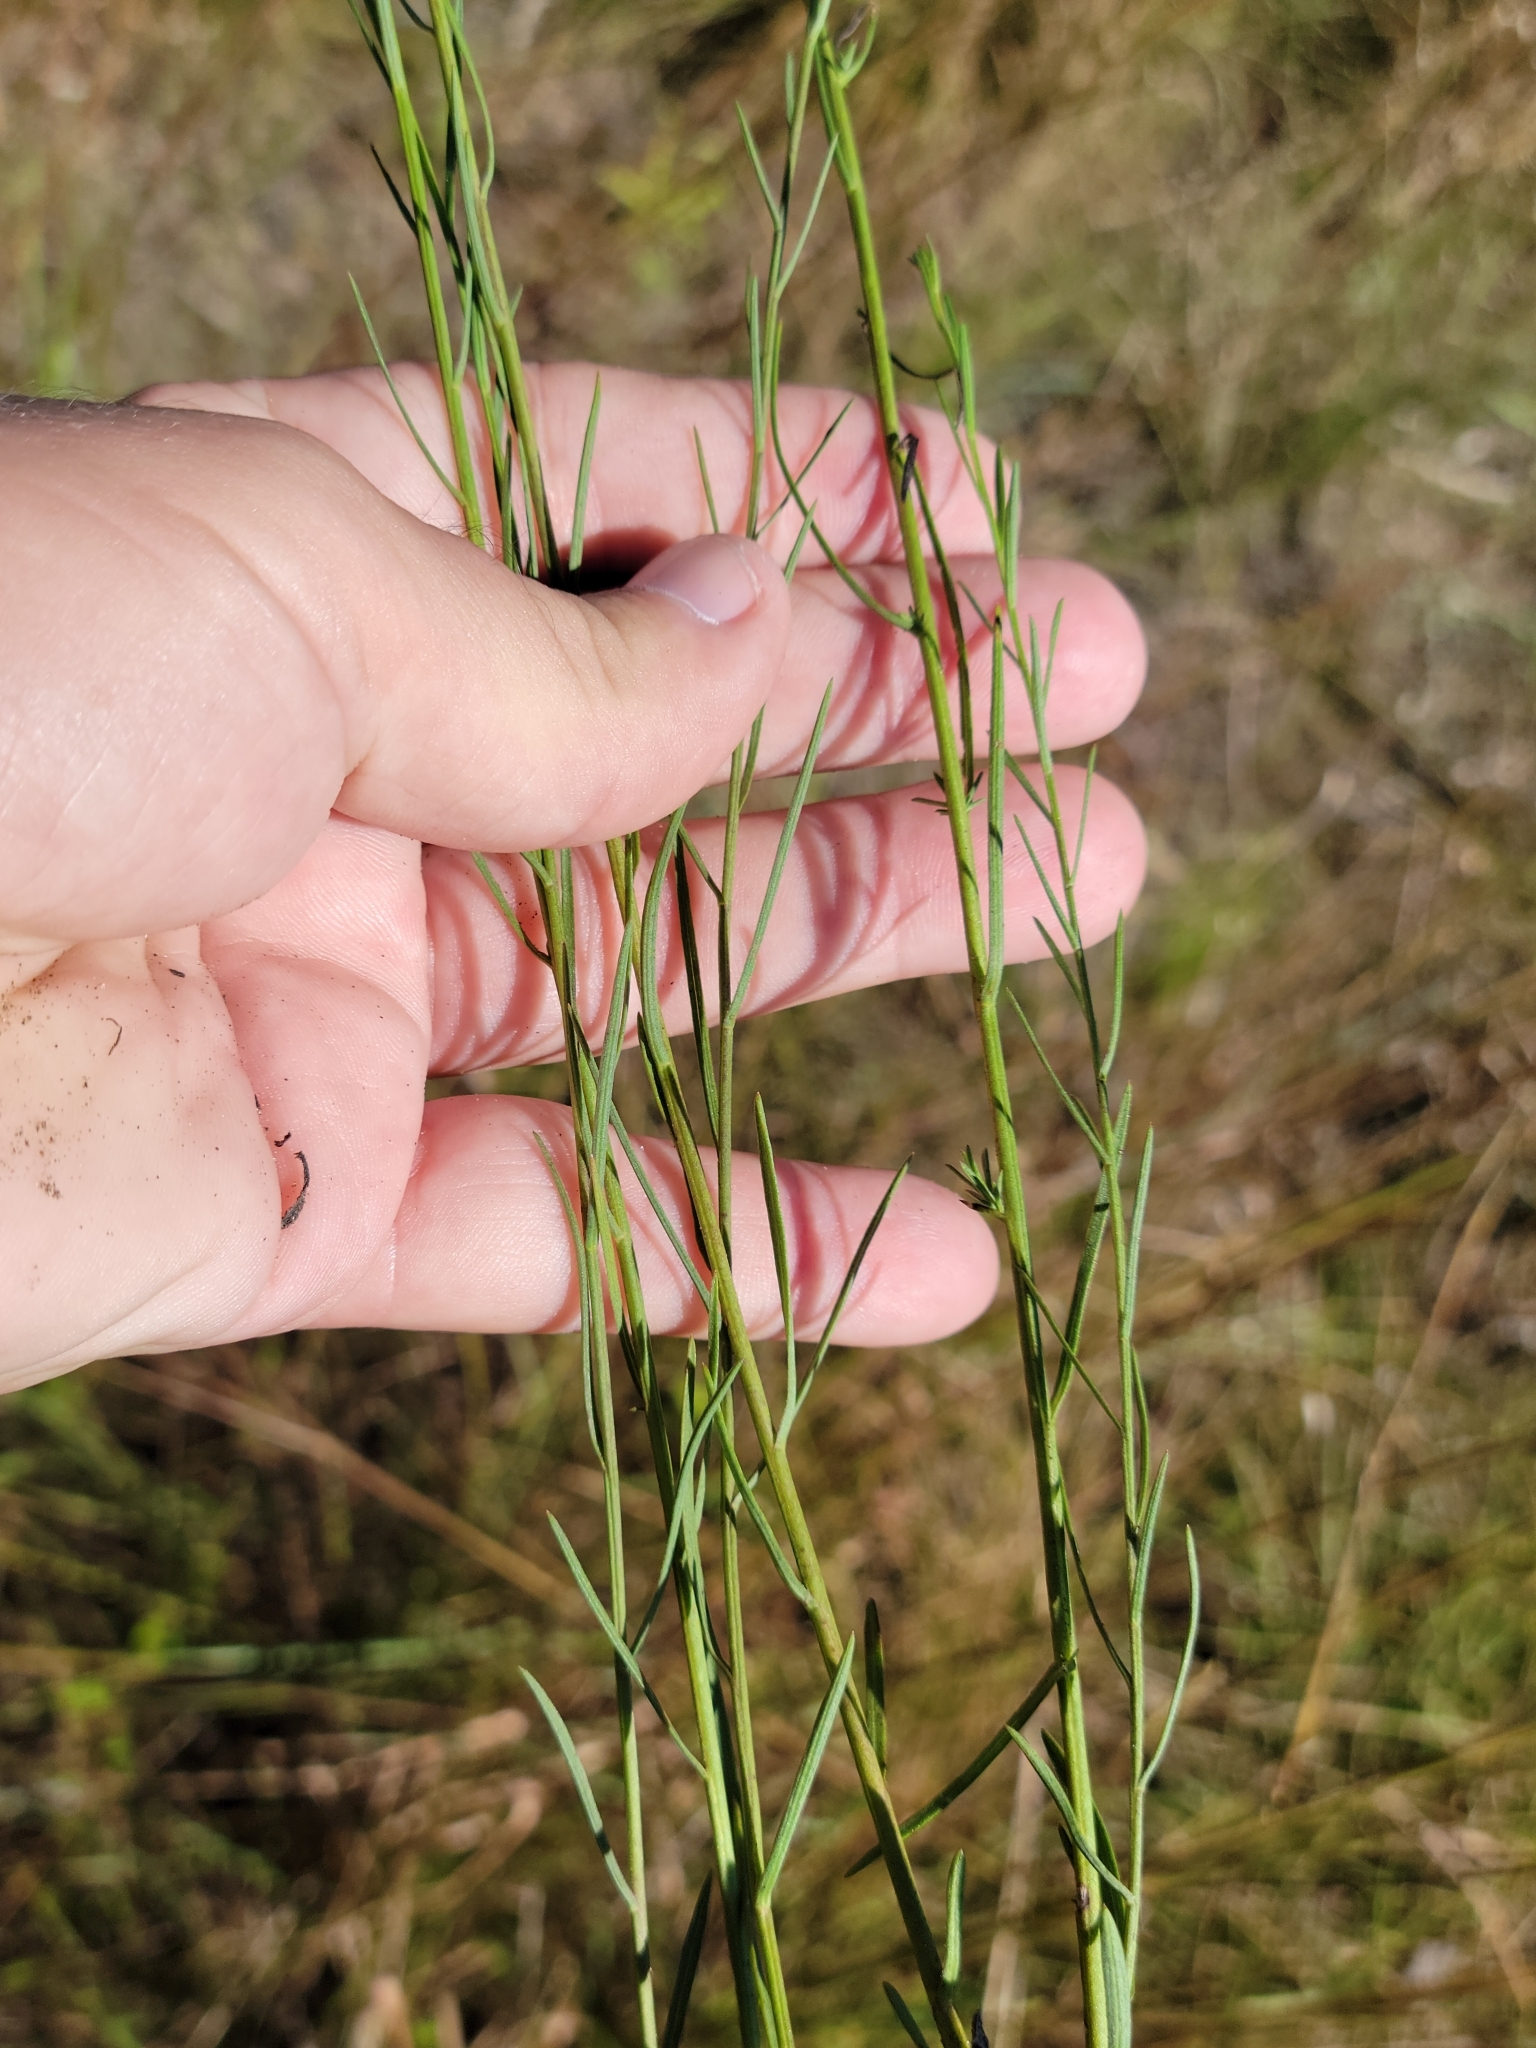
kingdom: Plantae
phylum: Tracheophyta
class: Magnoliopsida
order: Asterales
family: Asteraceae
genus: Symphyotrichum
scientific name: Symphyotrichum dumosum
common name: Bushy aster
